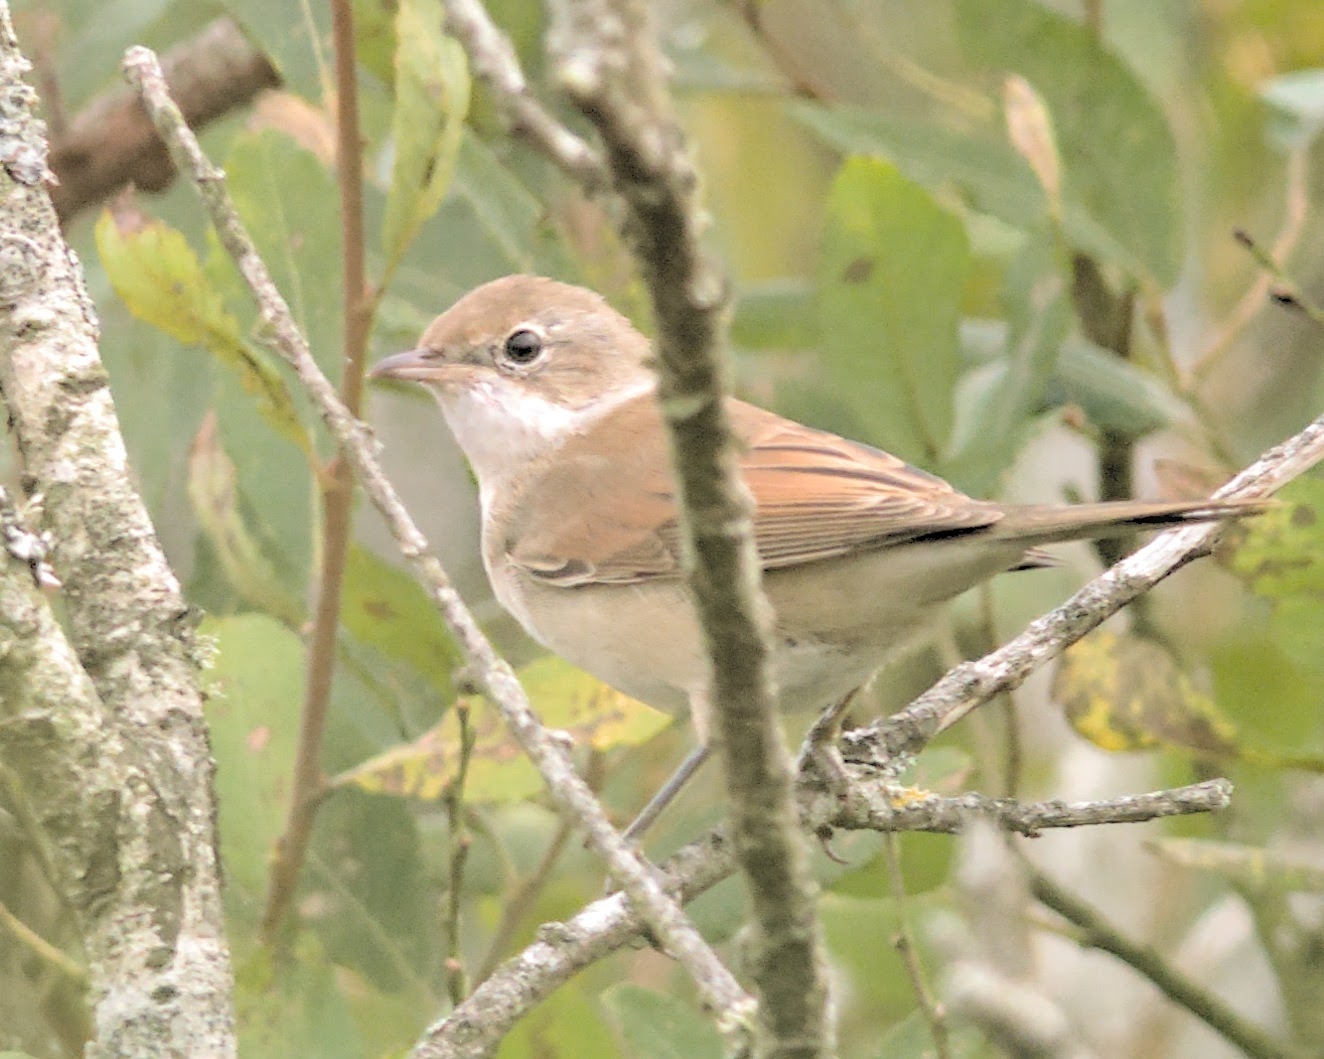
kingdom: Animalia
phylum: Chordata
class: Aves
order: Passeriformes
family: Sylviidae
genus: Sylvia
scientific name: Sylvia communis
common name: Common whitethroat
